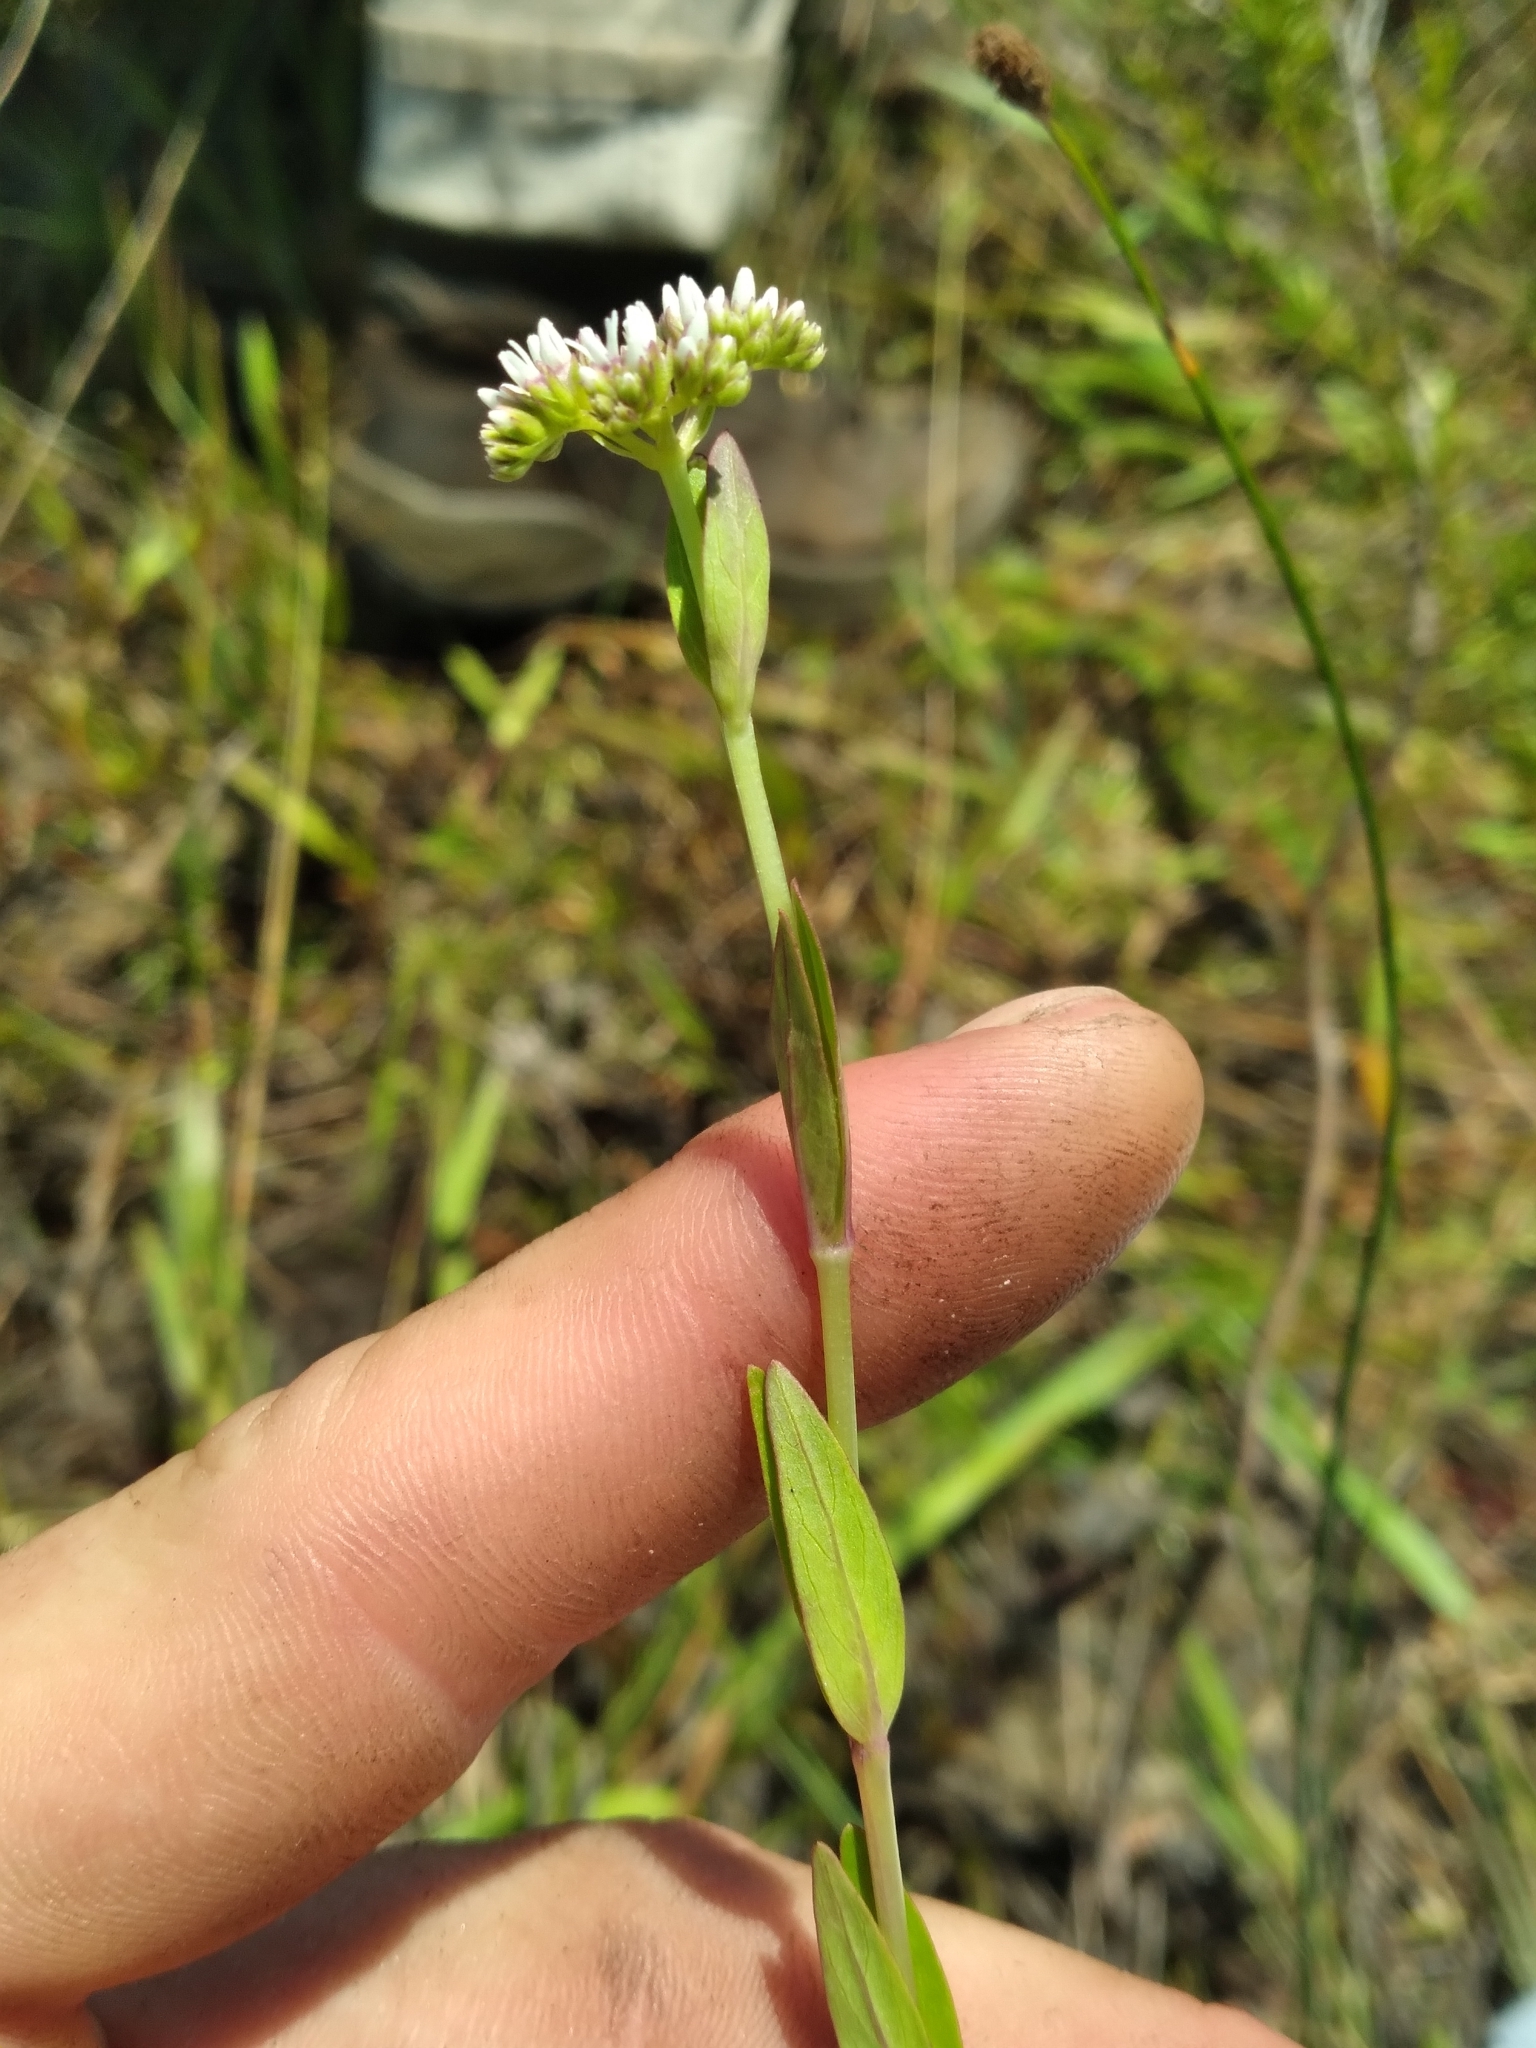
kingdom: Plantae
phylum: Tracheophyta
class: Magnoliopsida
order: Gentianales
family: Loganiaceae
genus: Mitreola
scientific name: Mitreola sessilifolia
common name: Swamp hornpod
